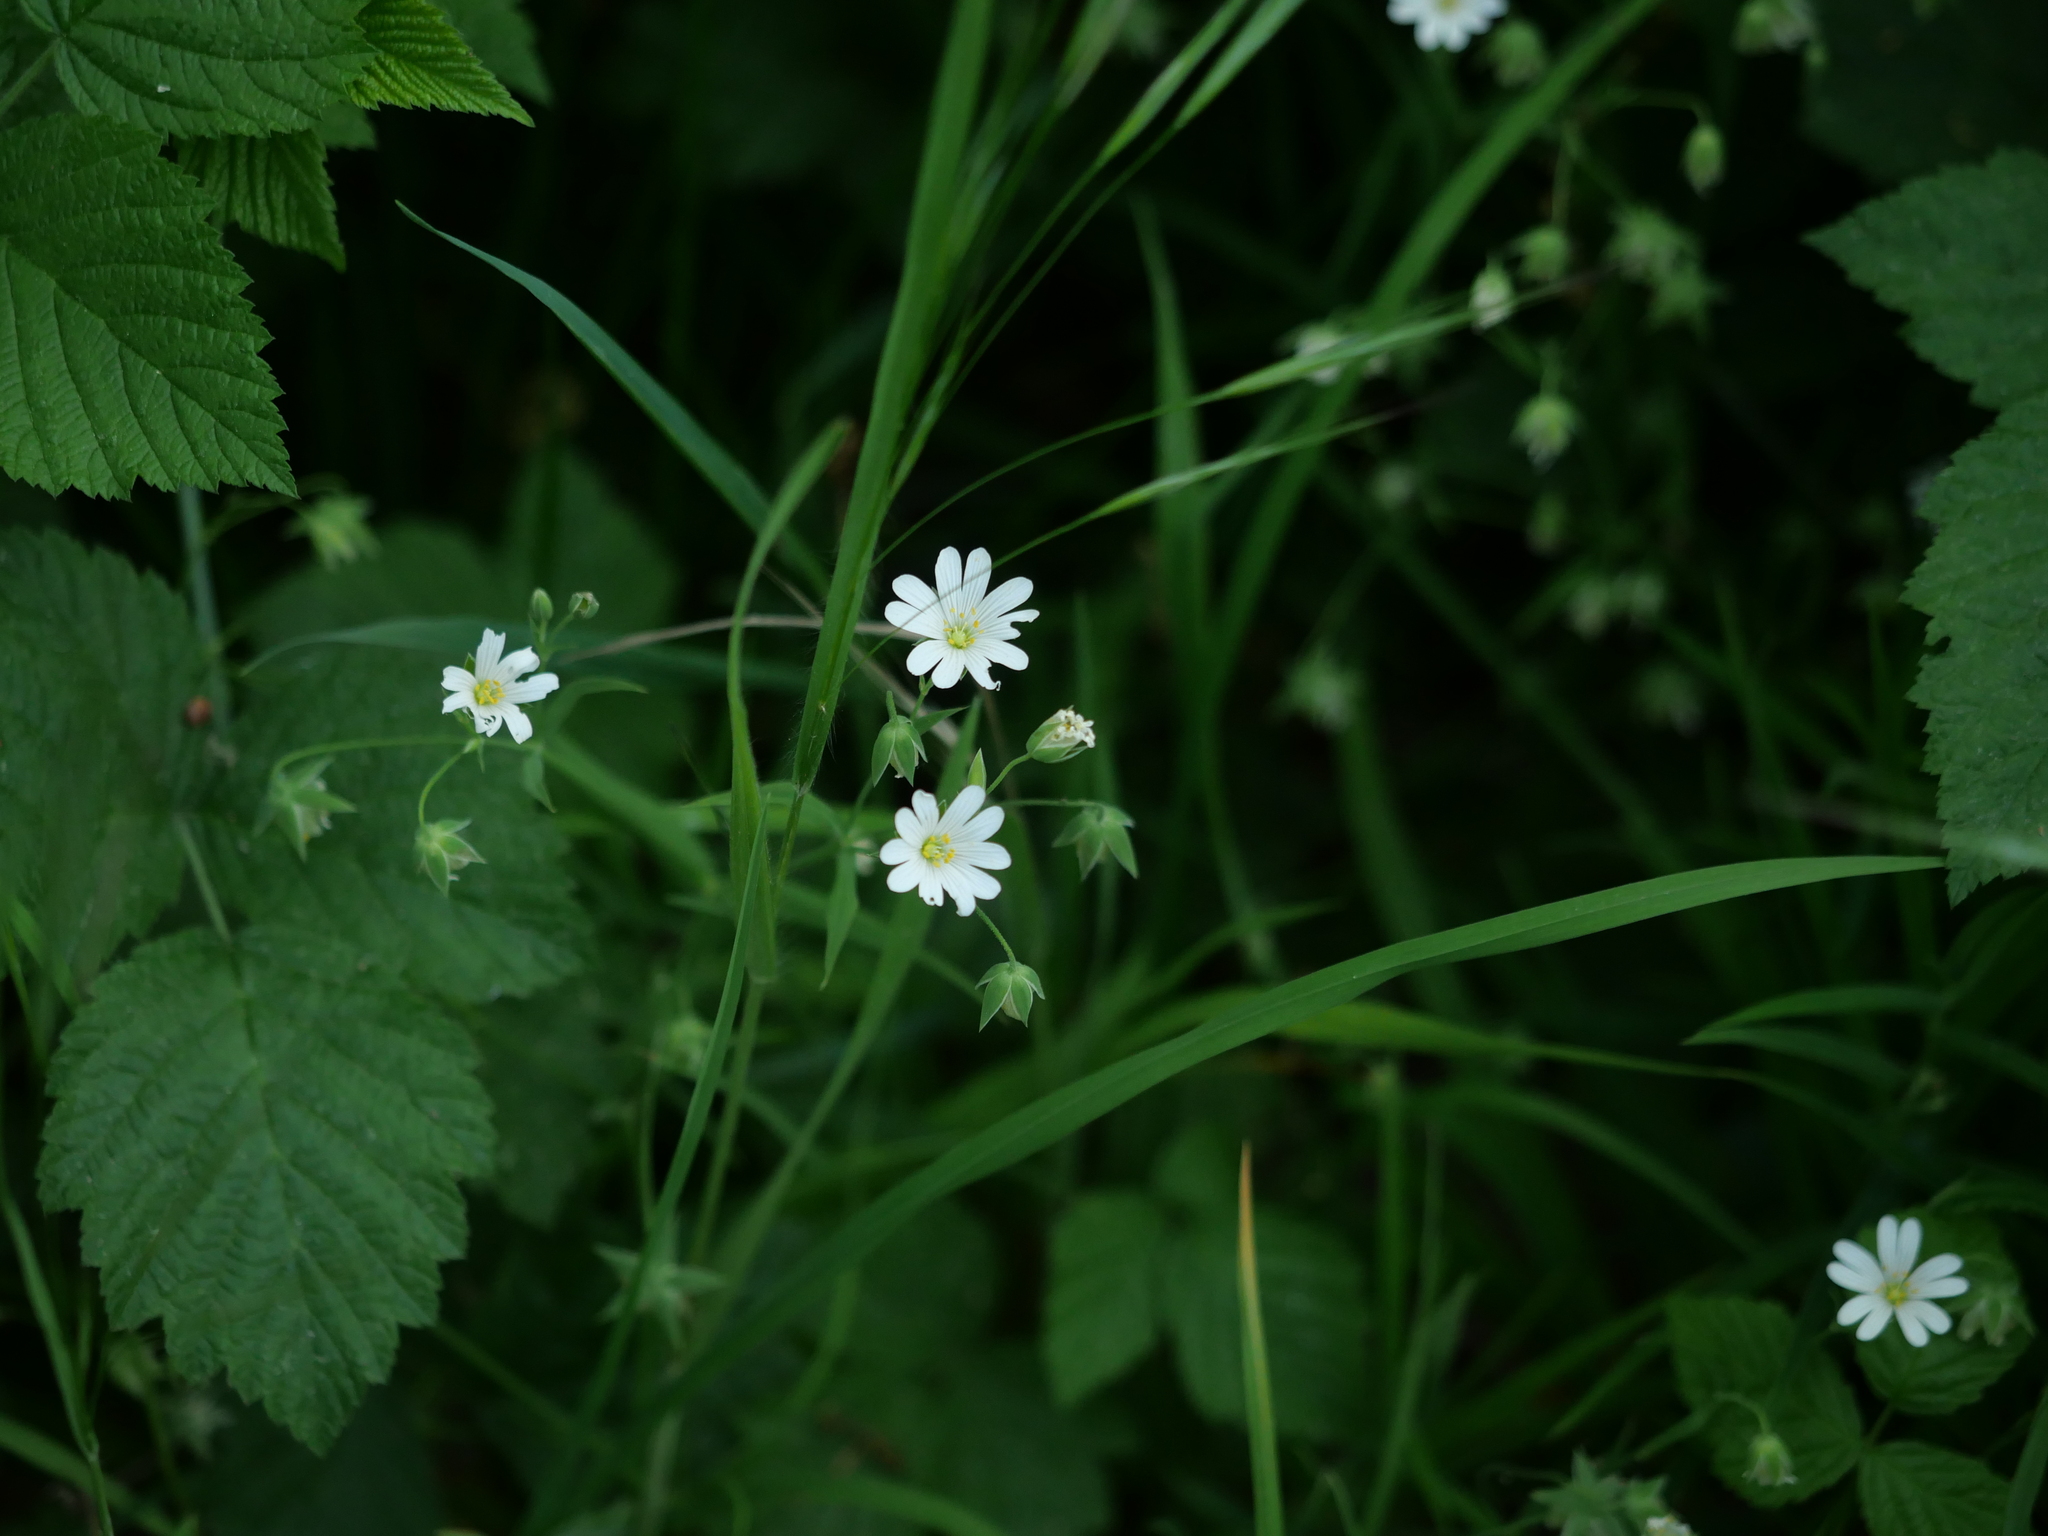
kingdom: Plantae
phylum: Tracheophyta
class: Magnoliopsida
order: Caryophyllales
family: Caryophyllaceae
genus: Rabelera
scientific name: Rabelera holostea
